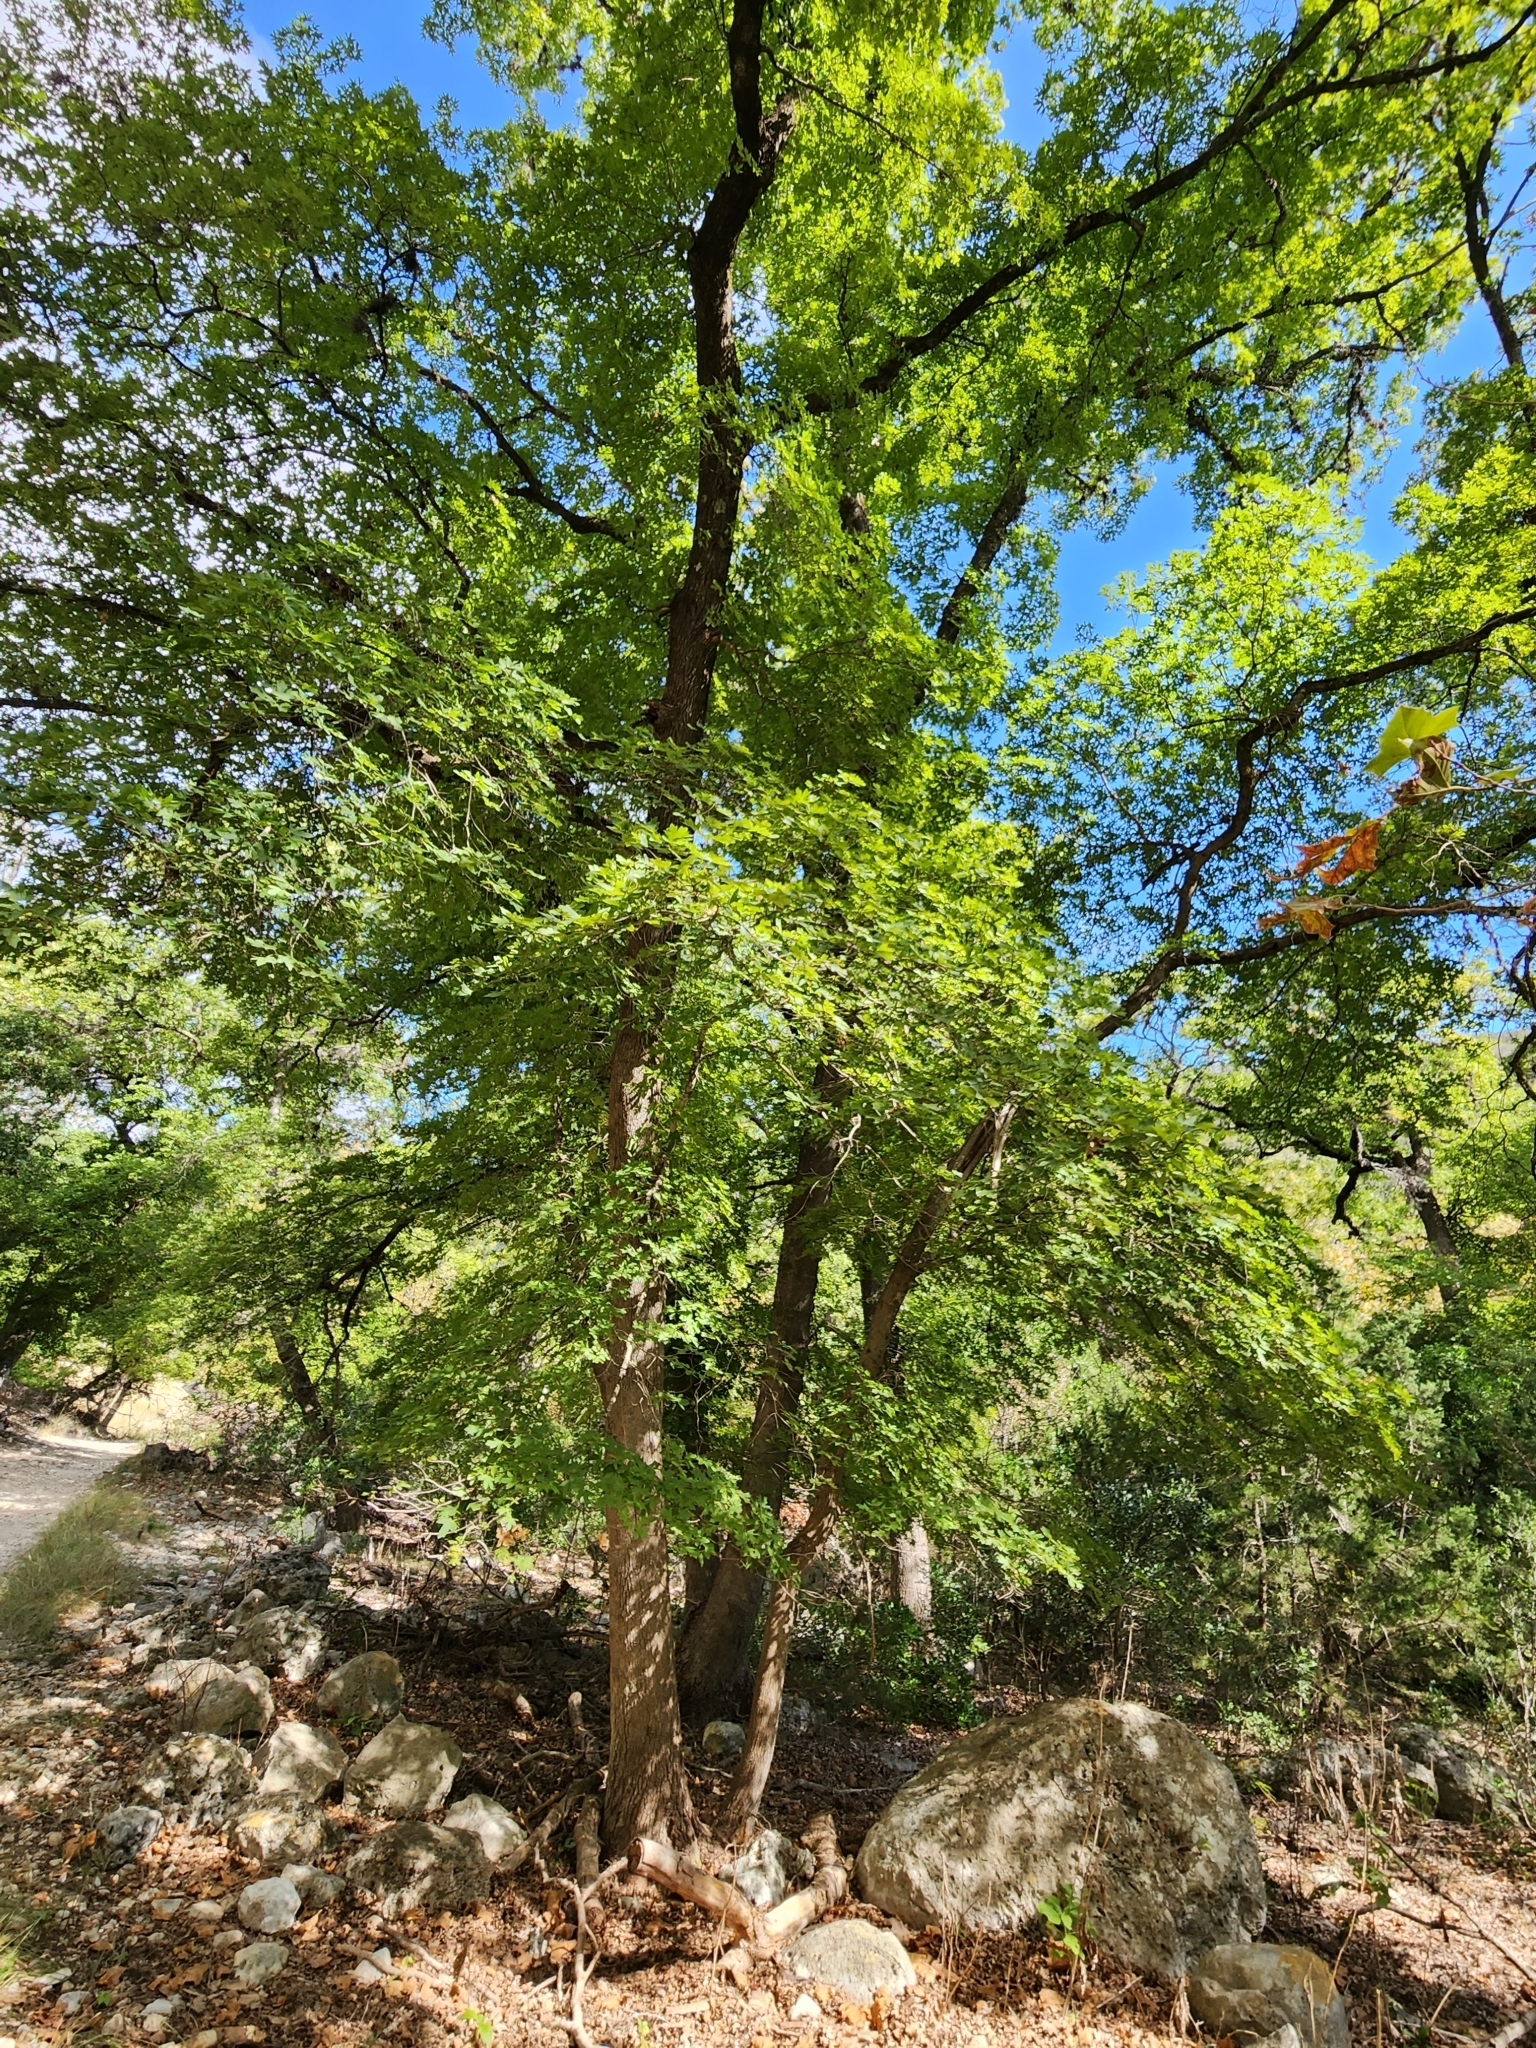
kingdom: Plantae
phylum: Tracheophyta
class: Magnoliopsida
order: Sapindales
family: Sapindaceae
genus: Acer
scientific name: Acer grandidentatum
